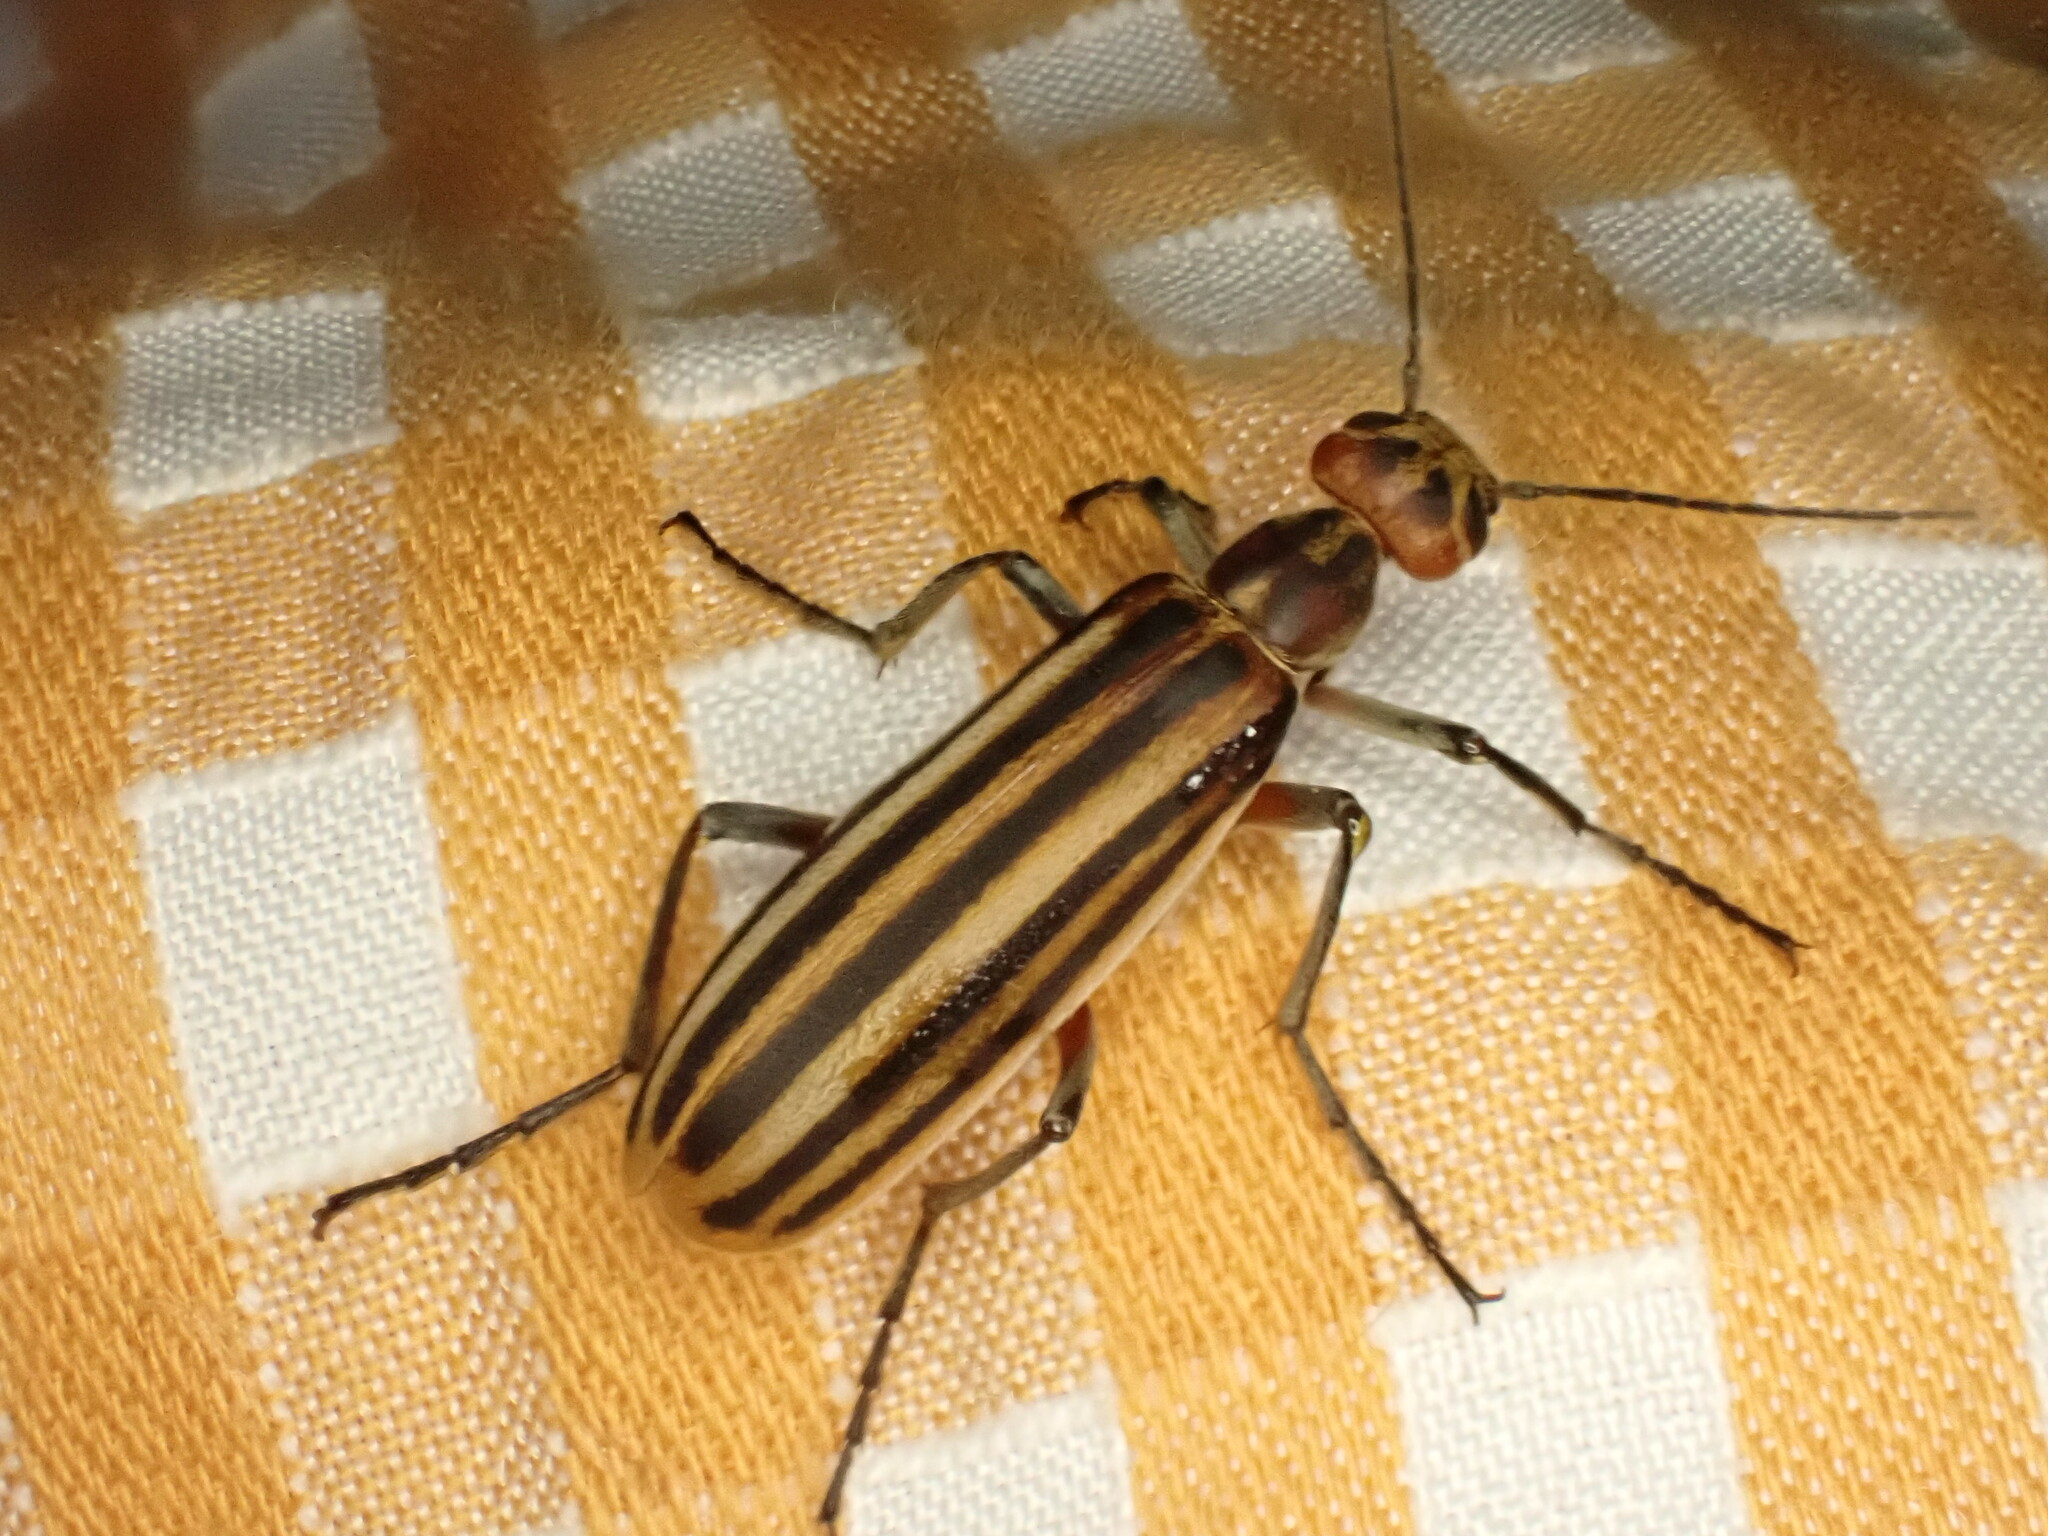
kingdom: Animalia
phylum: Arthropoda
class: Insecta
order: Coleoptera
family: Meloidae
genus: Epicauta
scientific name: Epicauta vittata
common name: Old-fashioned potato beetle
